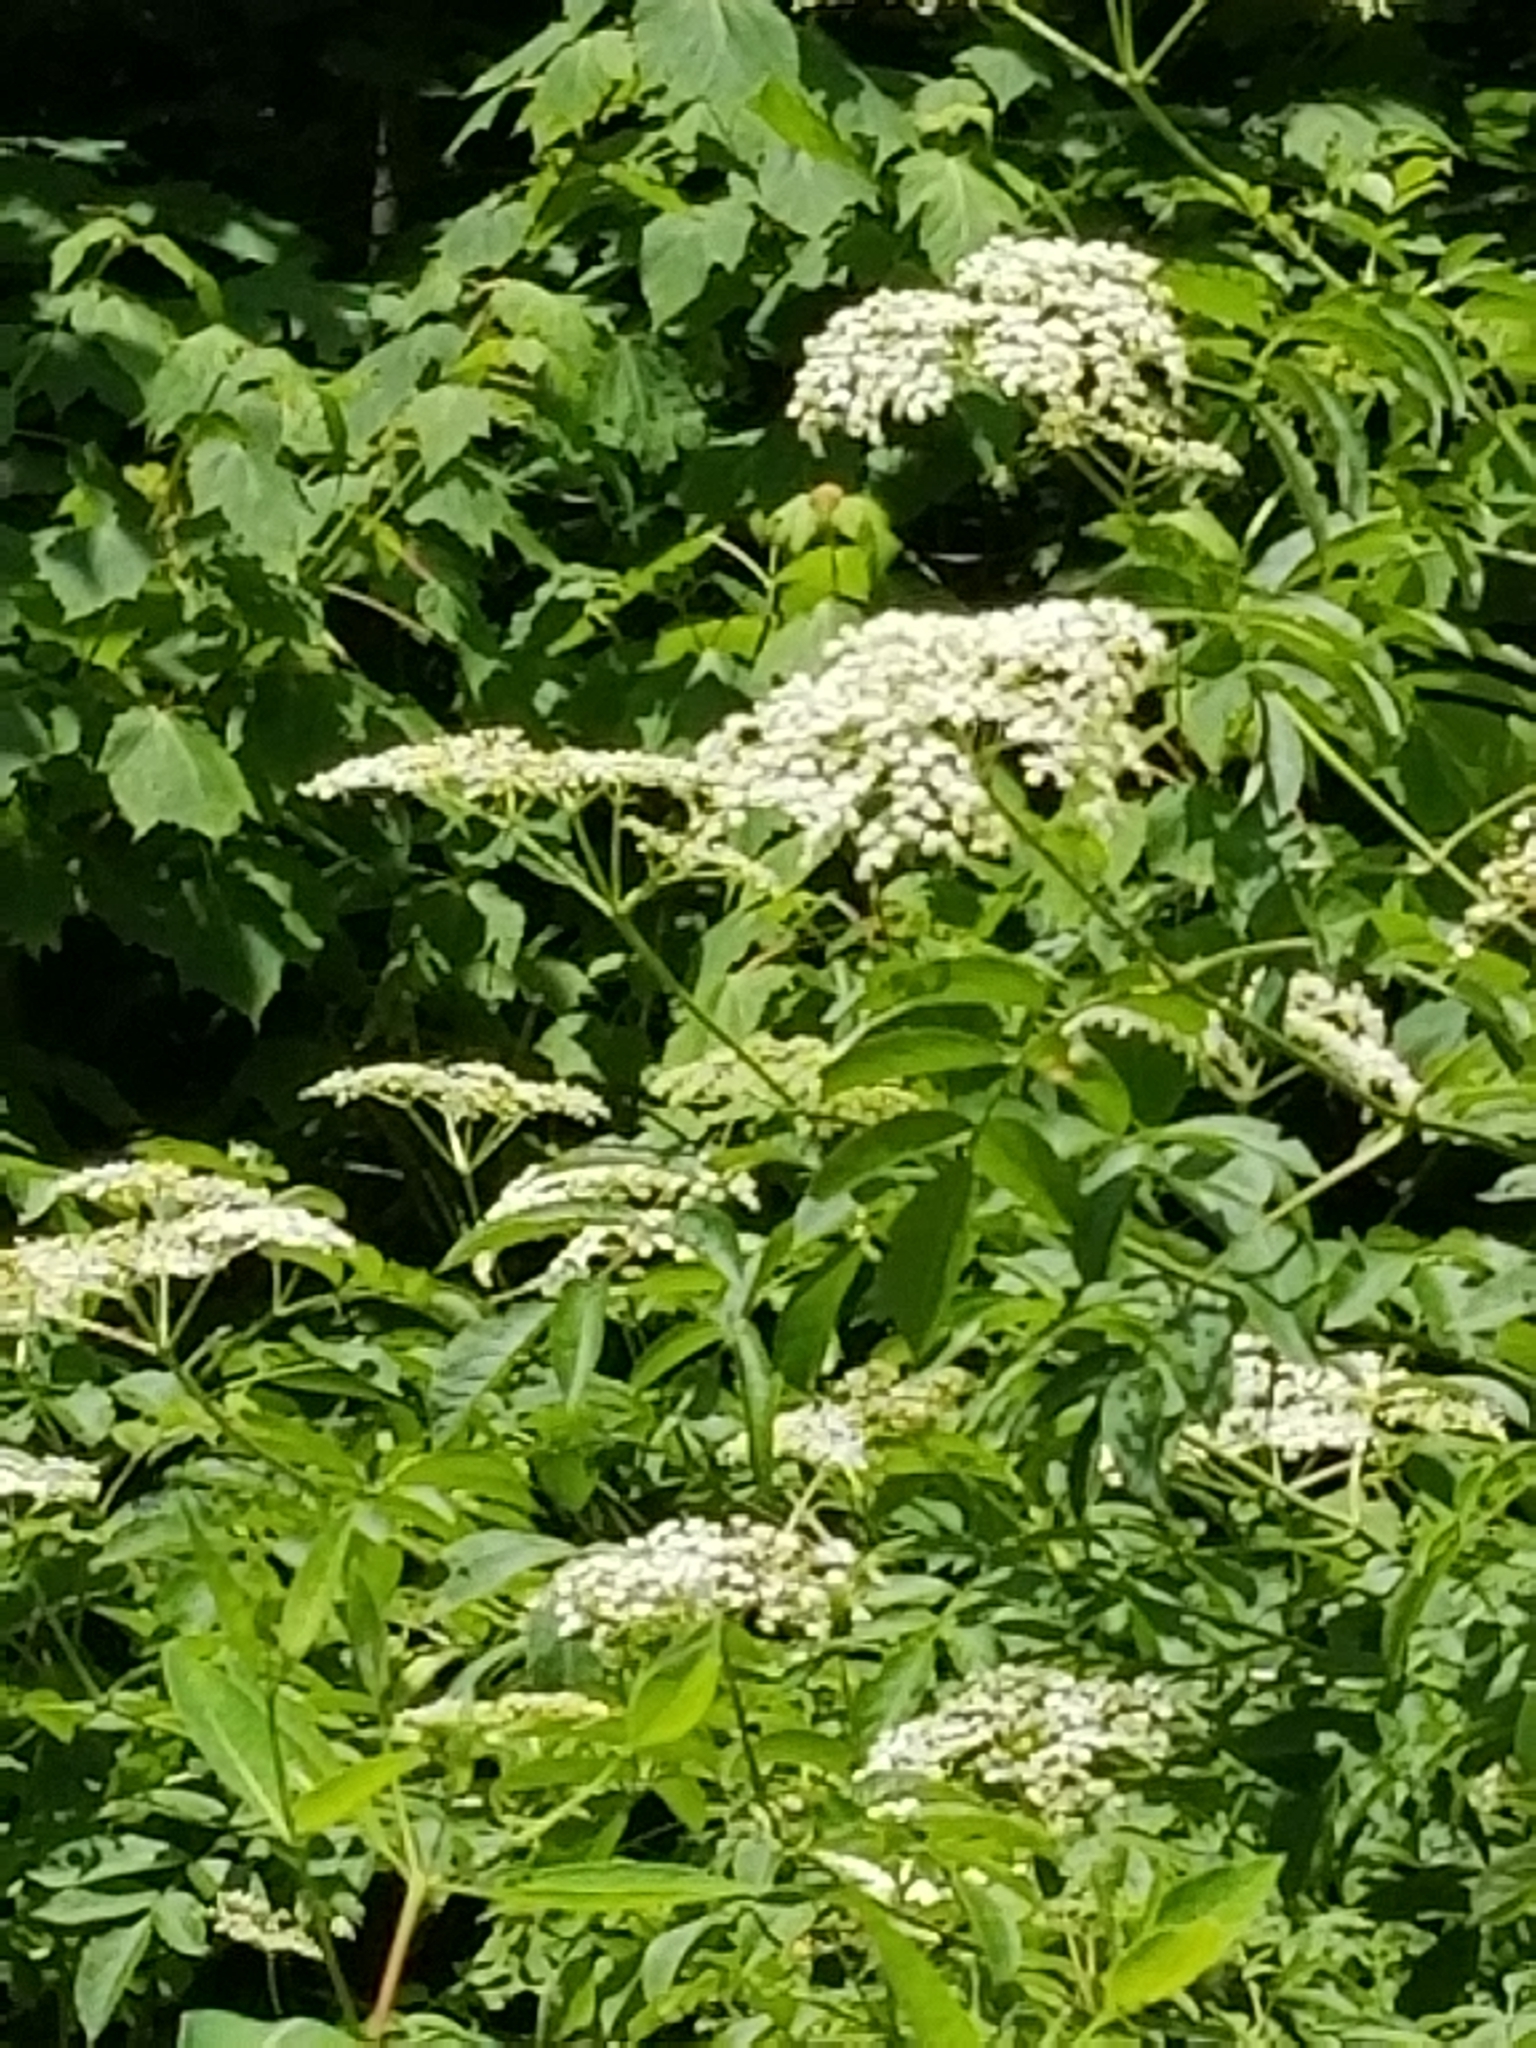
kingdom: Plantae
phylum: Tracheophyta
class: Magnoliopsida
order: Dipsacales
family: Viburnaceae
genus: Sambucus
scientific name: Sambucus canadensis
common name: American elder
